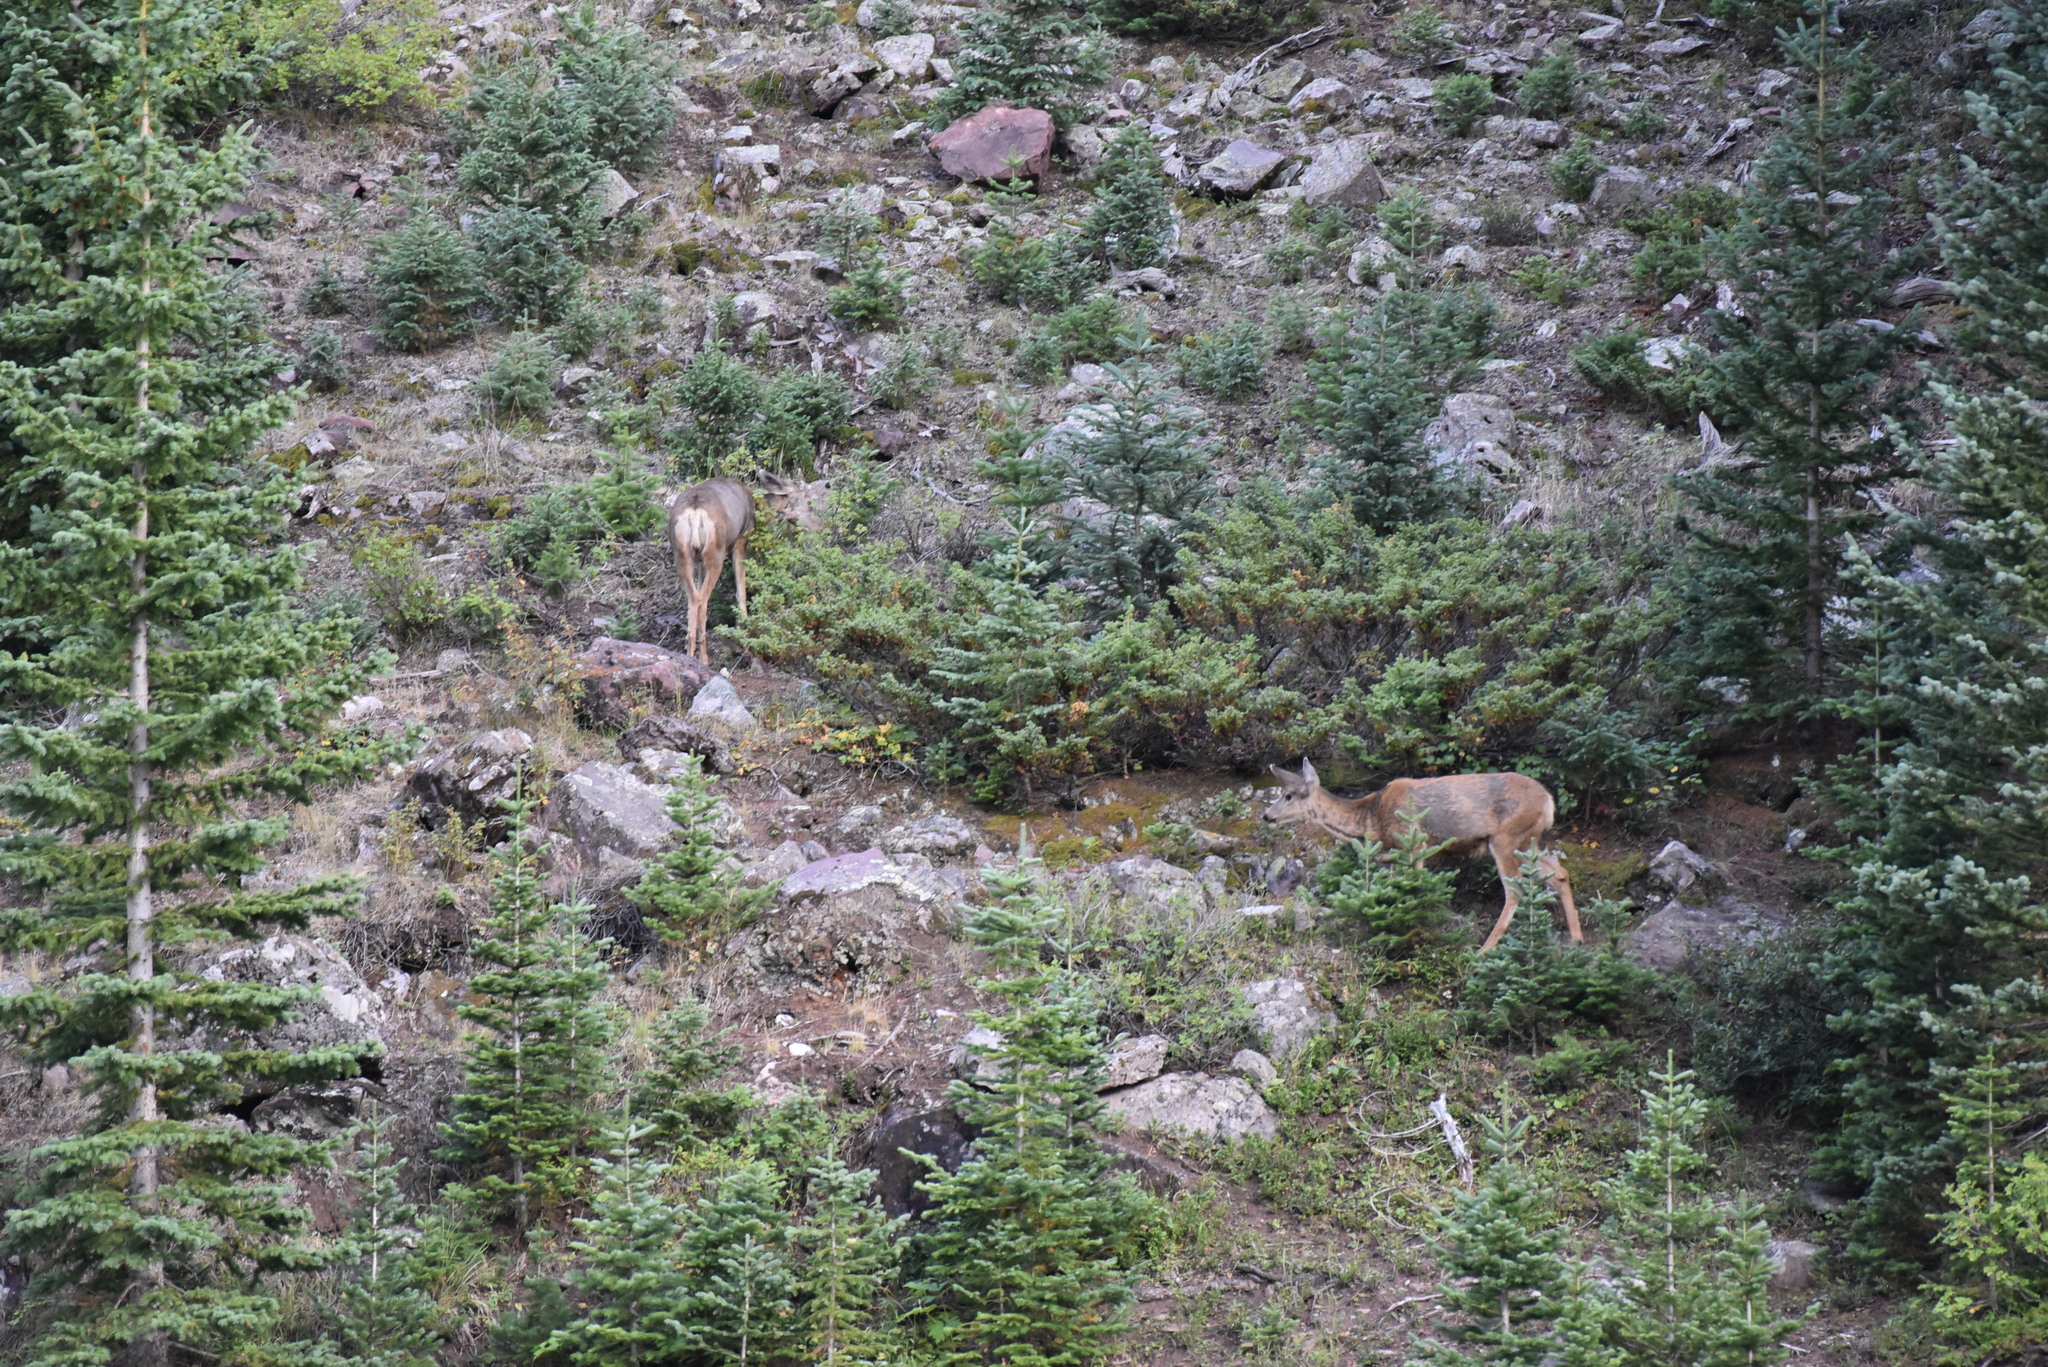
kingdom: Animalia
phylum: Chordata
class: Mammalia
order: Artiodactyla
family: Cervidae
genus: Odocoileus
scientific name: Odocoileus hemionus
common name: Mule deer
